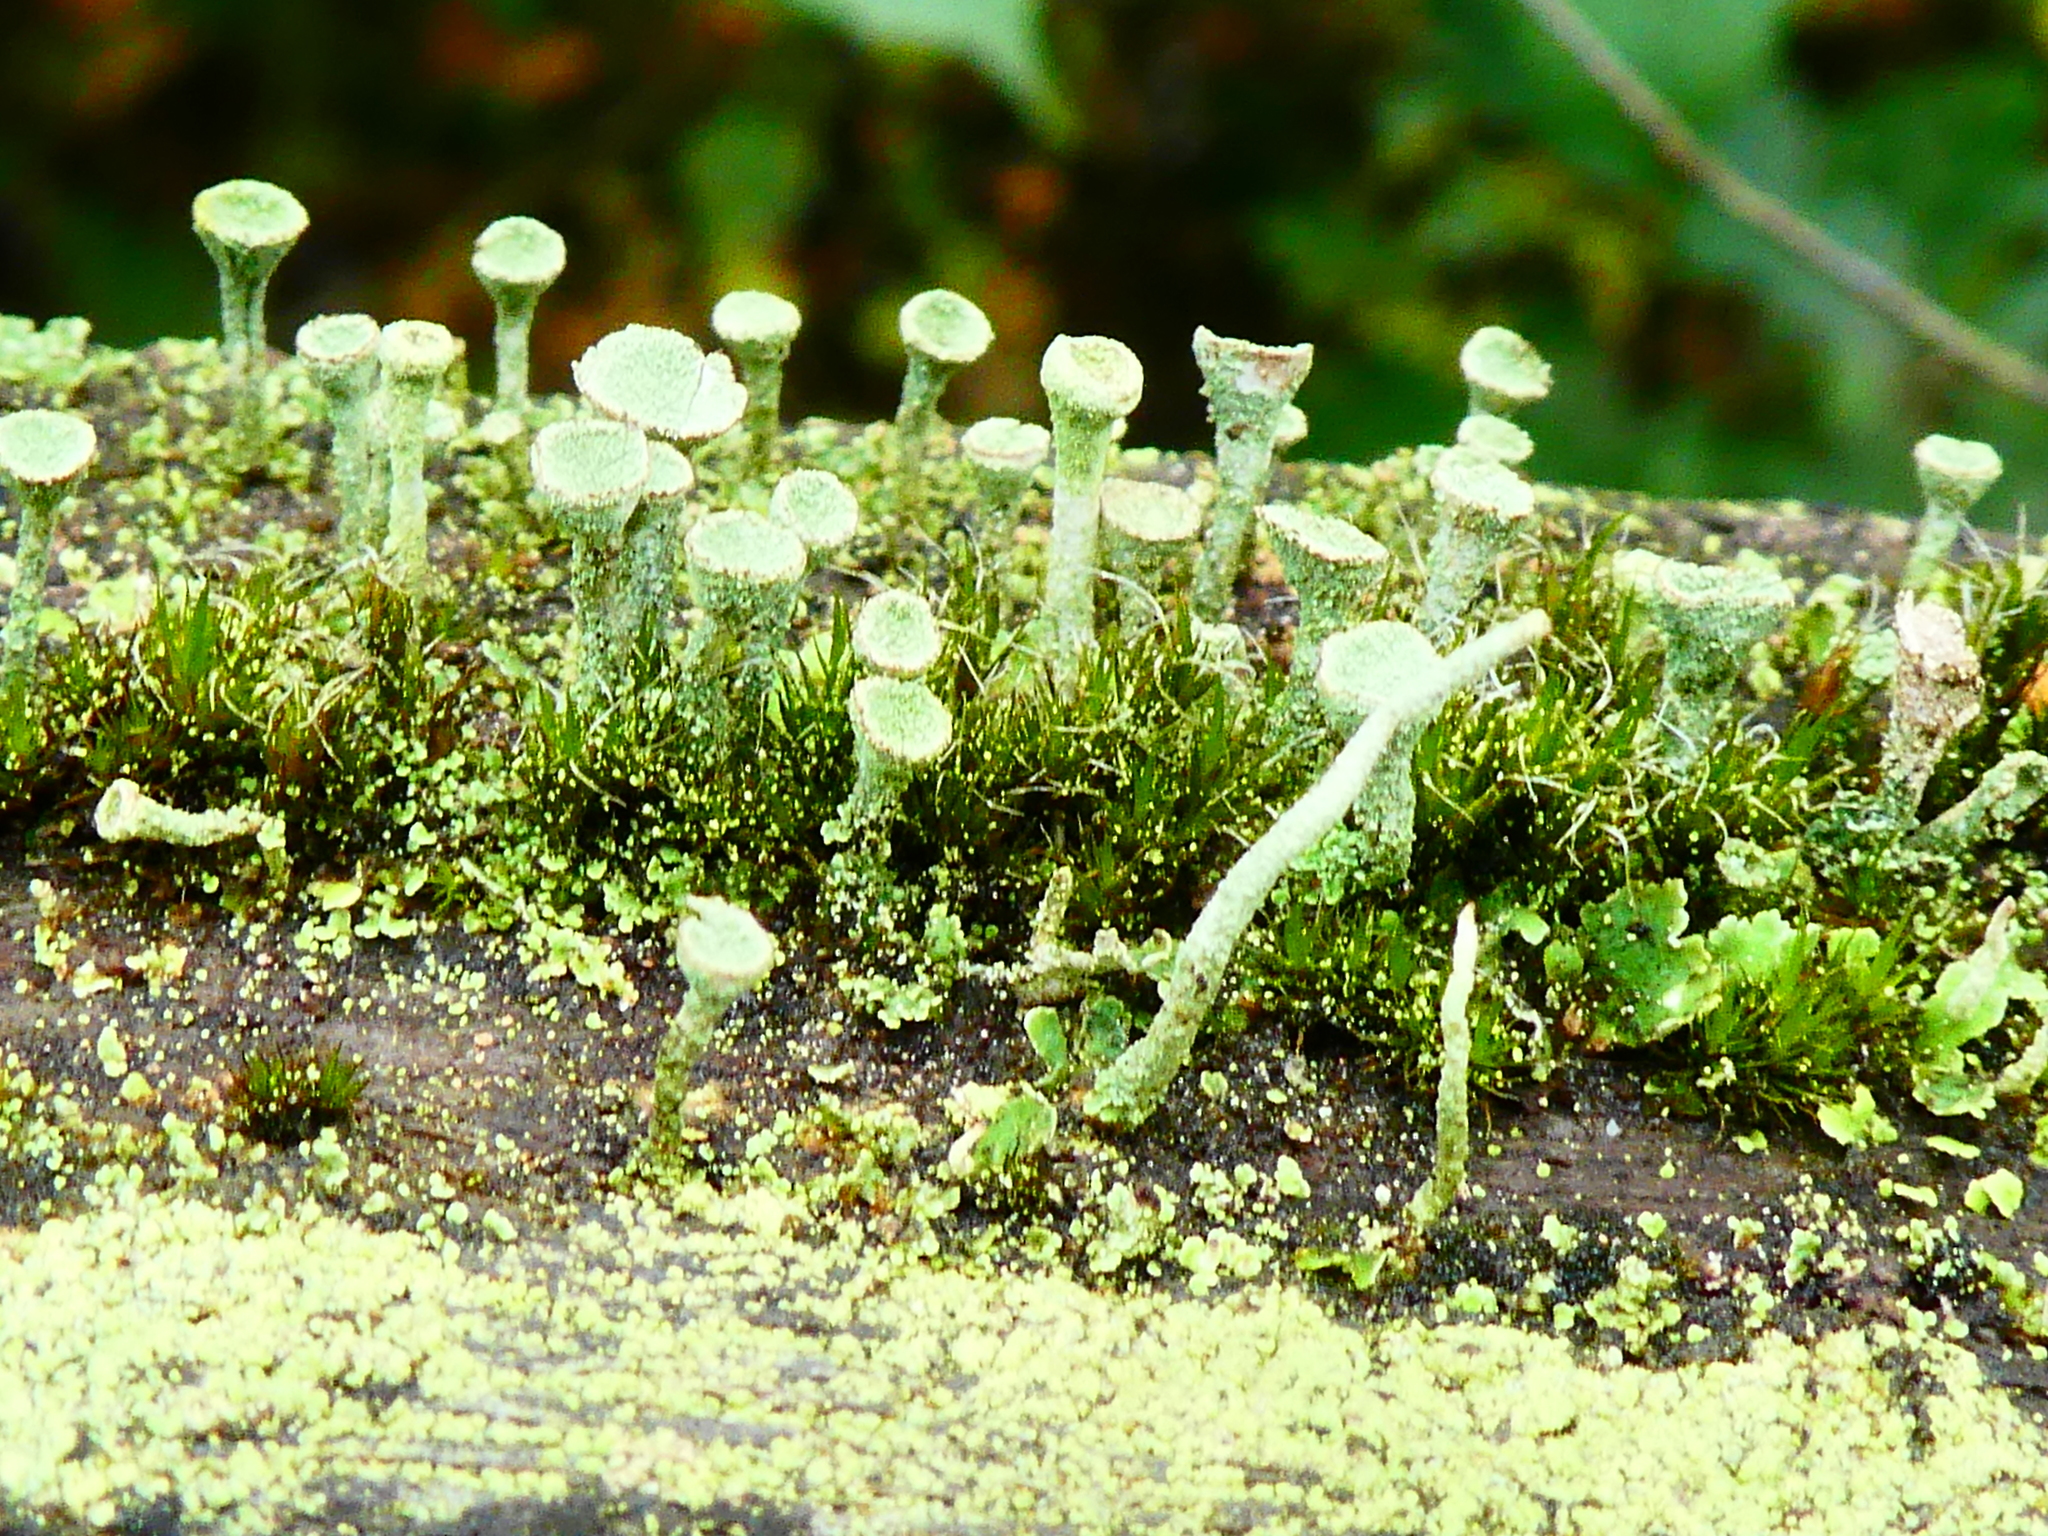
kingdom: Fungi
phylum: Ascomycota
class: Lecanoromycetes
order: Lecanorales
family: Cladoniaceae
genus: Cladonia
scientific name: Cladonia
